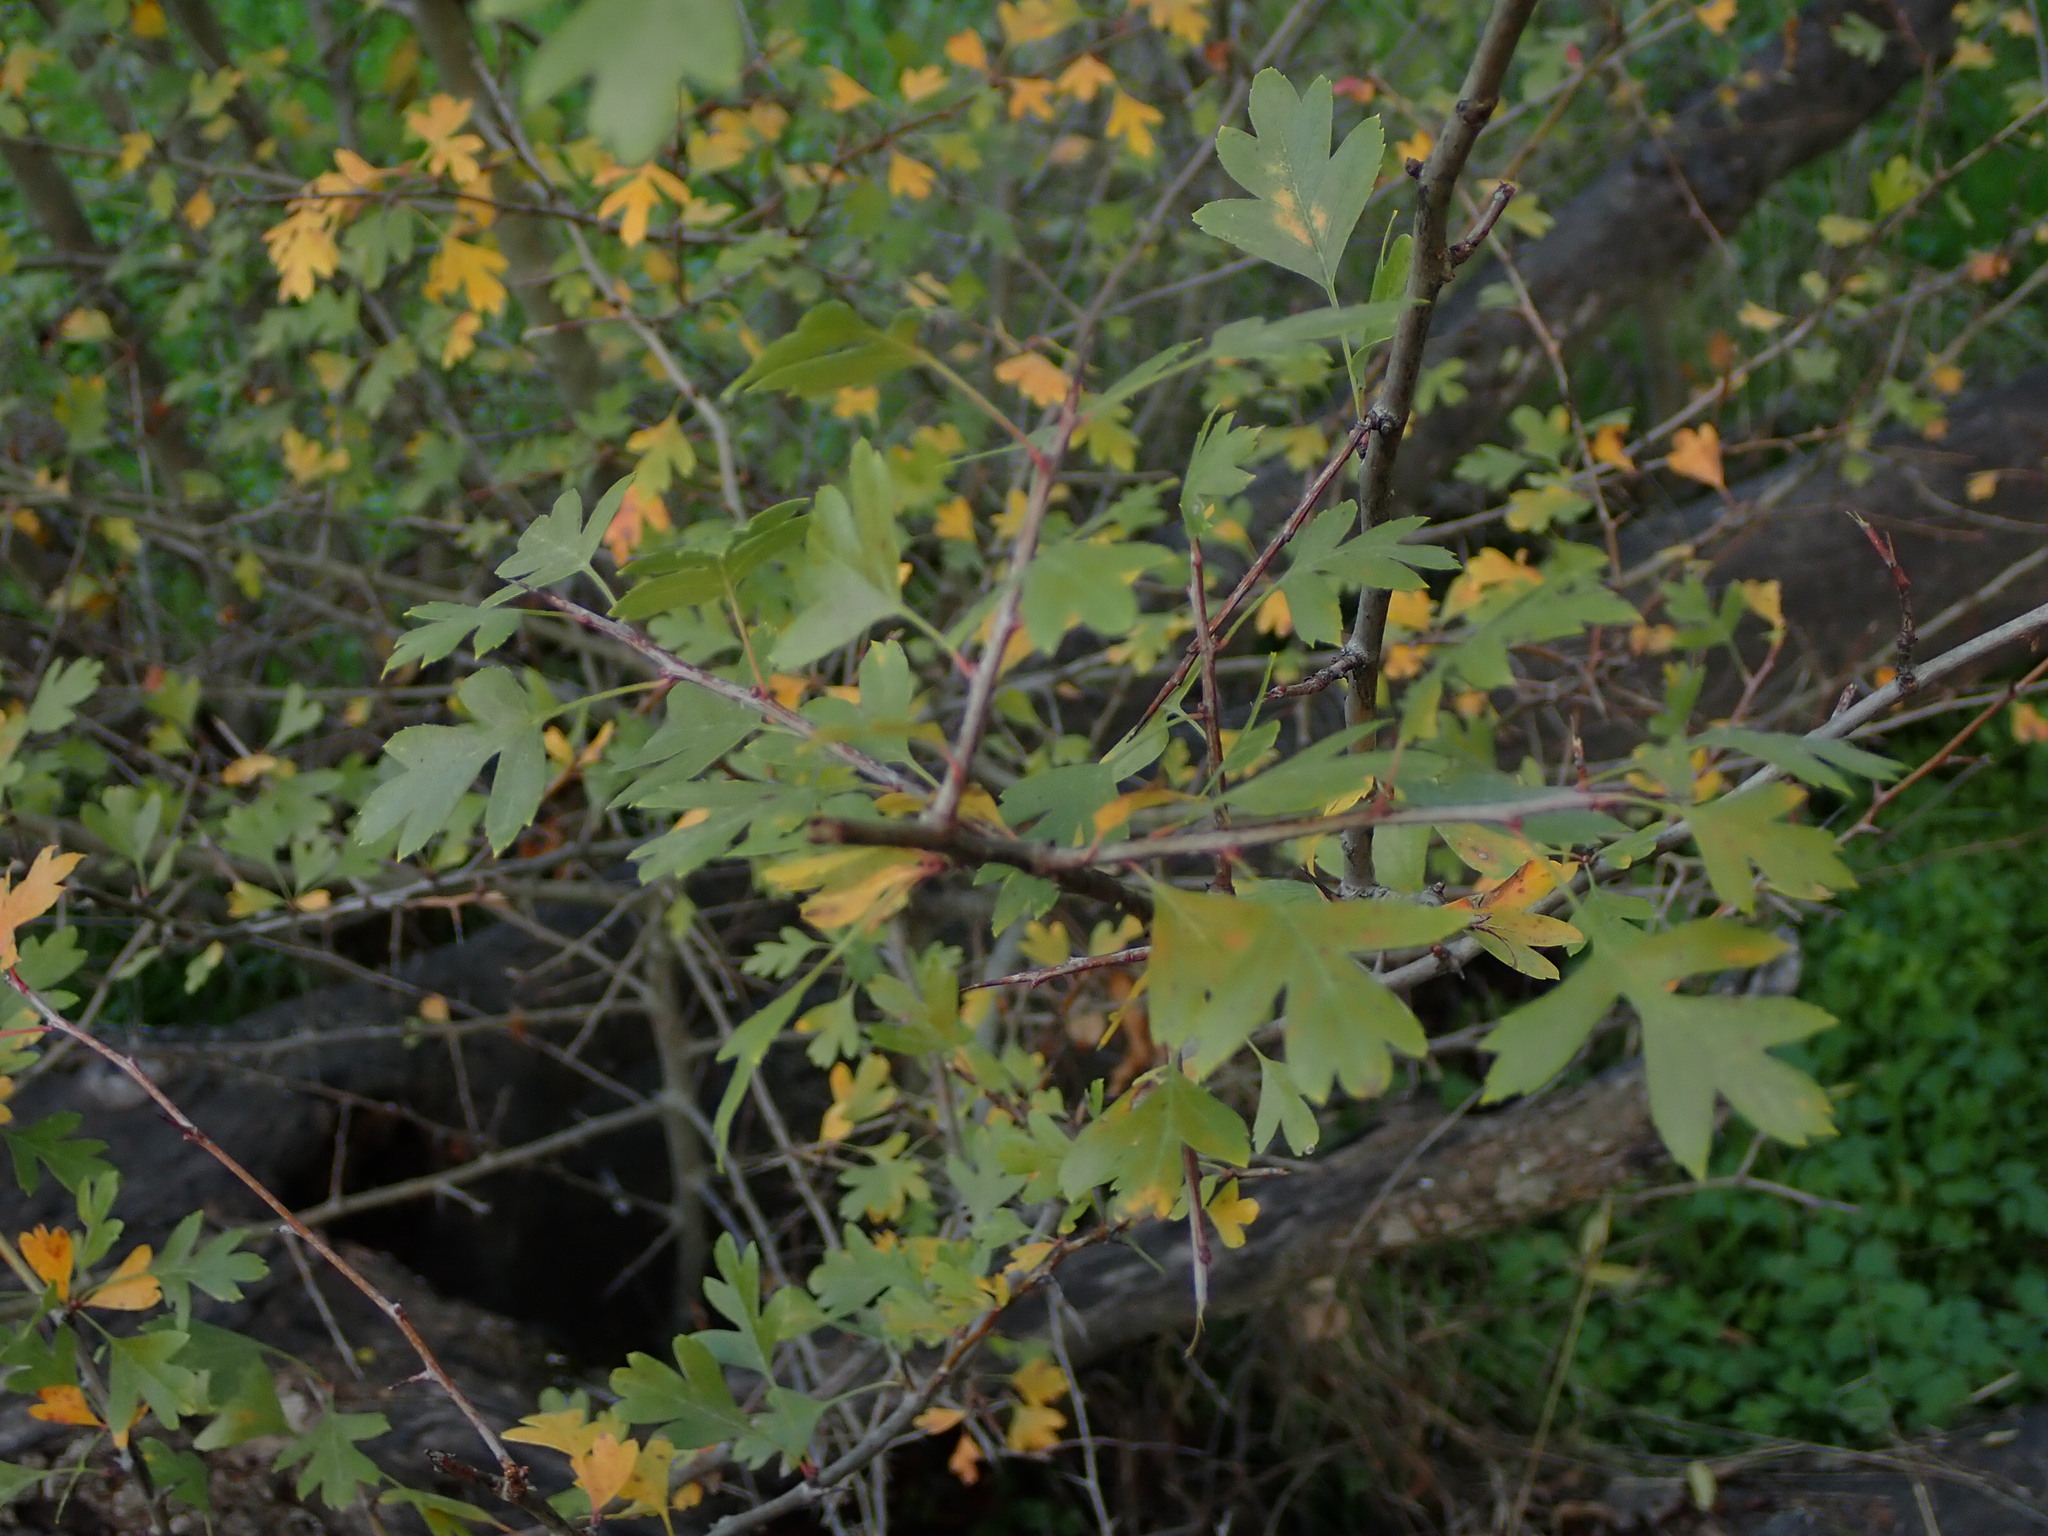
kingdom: Plantae
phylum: Tracheophyta
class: Magnoliopsida
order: Rosales
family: Rosaceae
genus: Crataegus
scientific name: Crataegus monogyna
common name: Hawthorn
